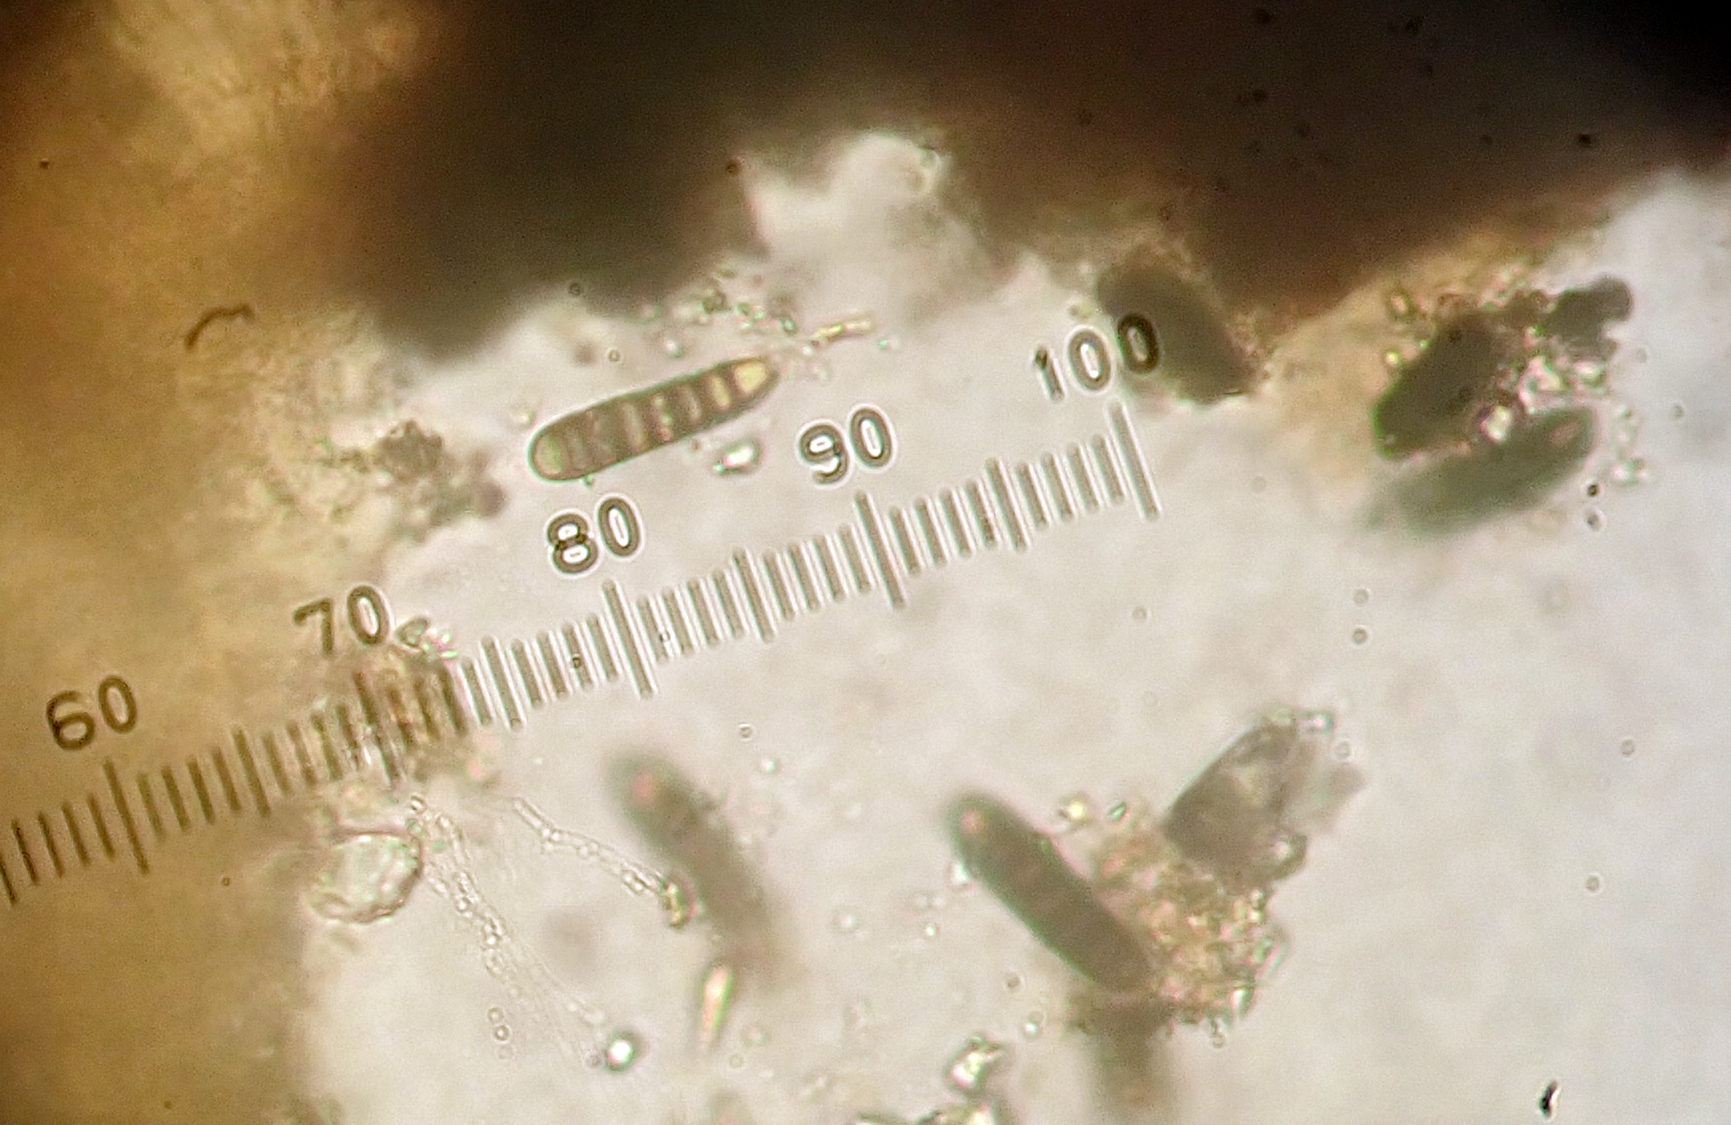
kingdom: Fungi
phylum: Ascomycota
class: Lecanoromycetes
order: Ostropales
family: Graphidaceae
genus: Graphis
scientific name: Graphis anfractuosa
